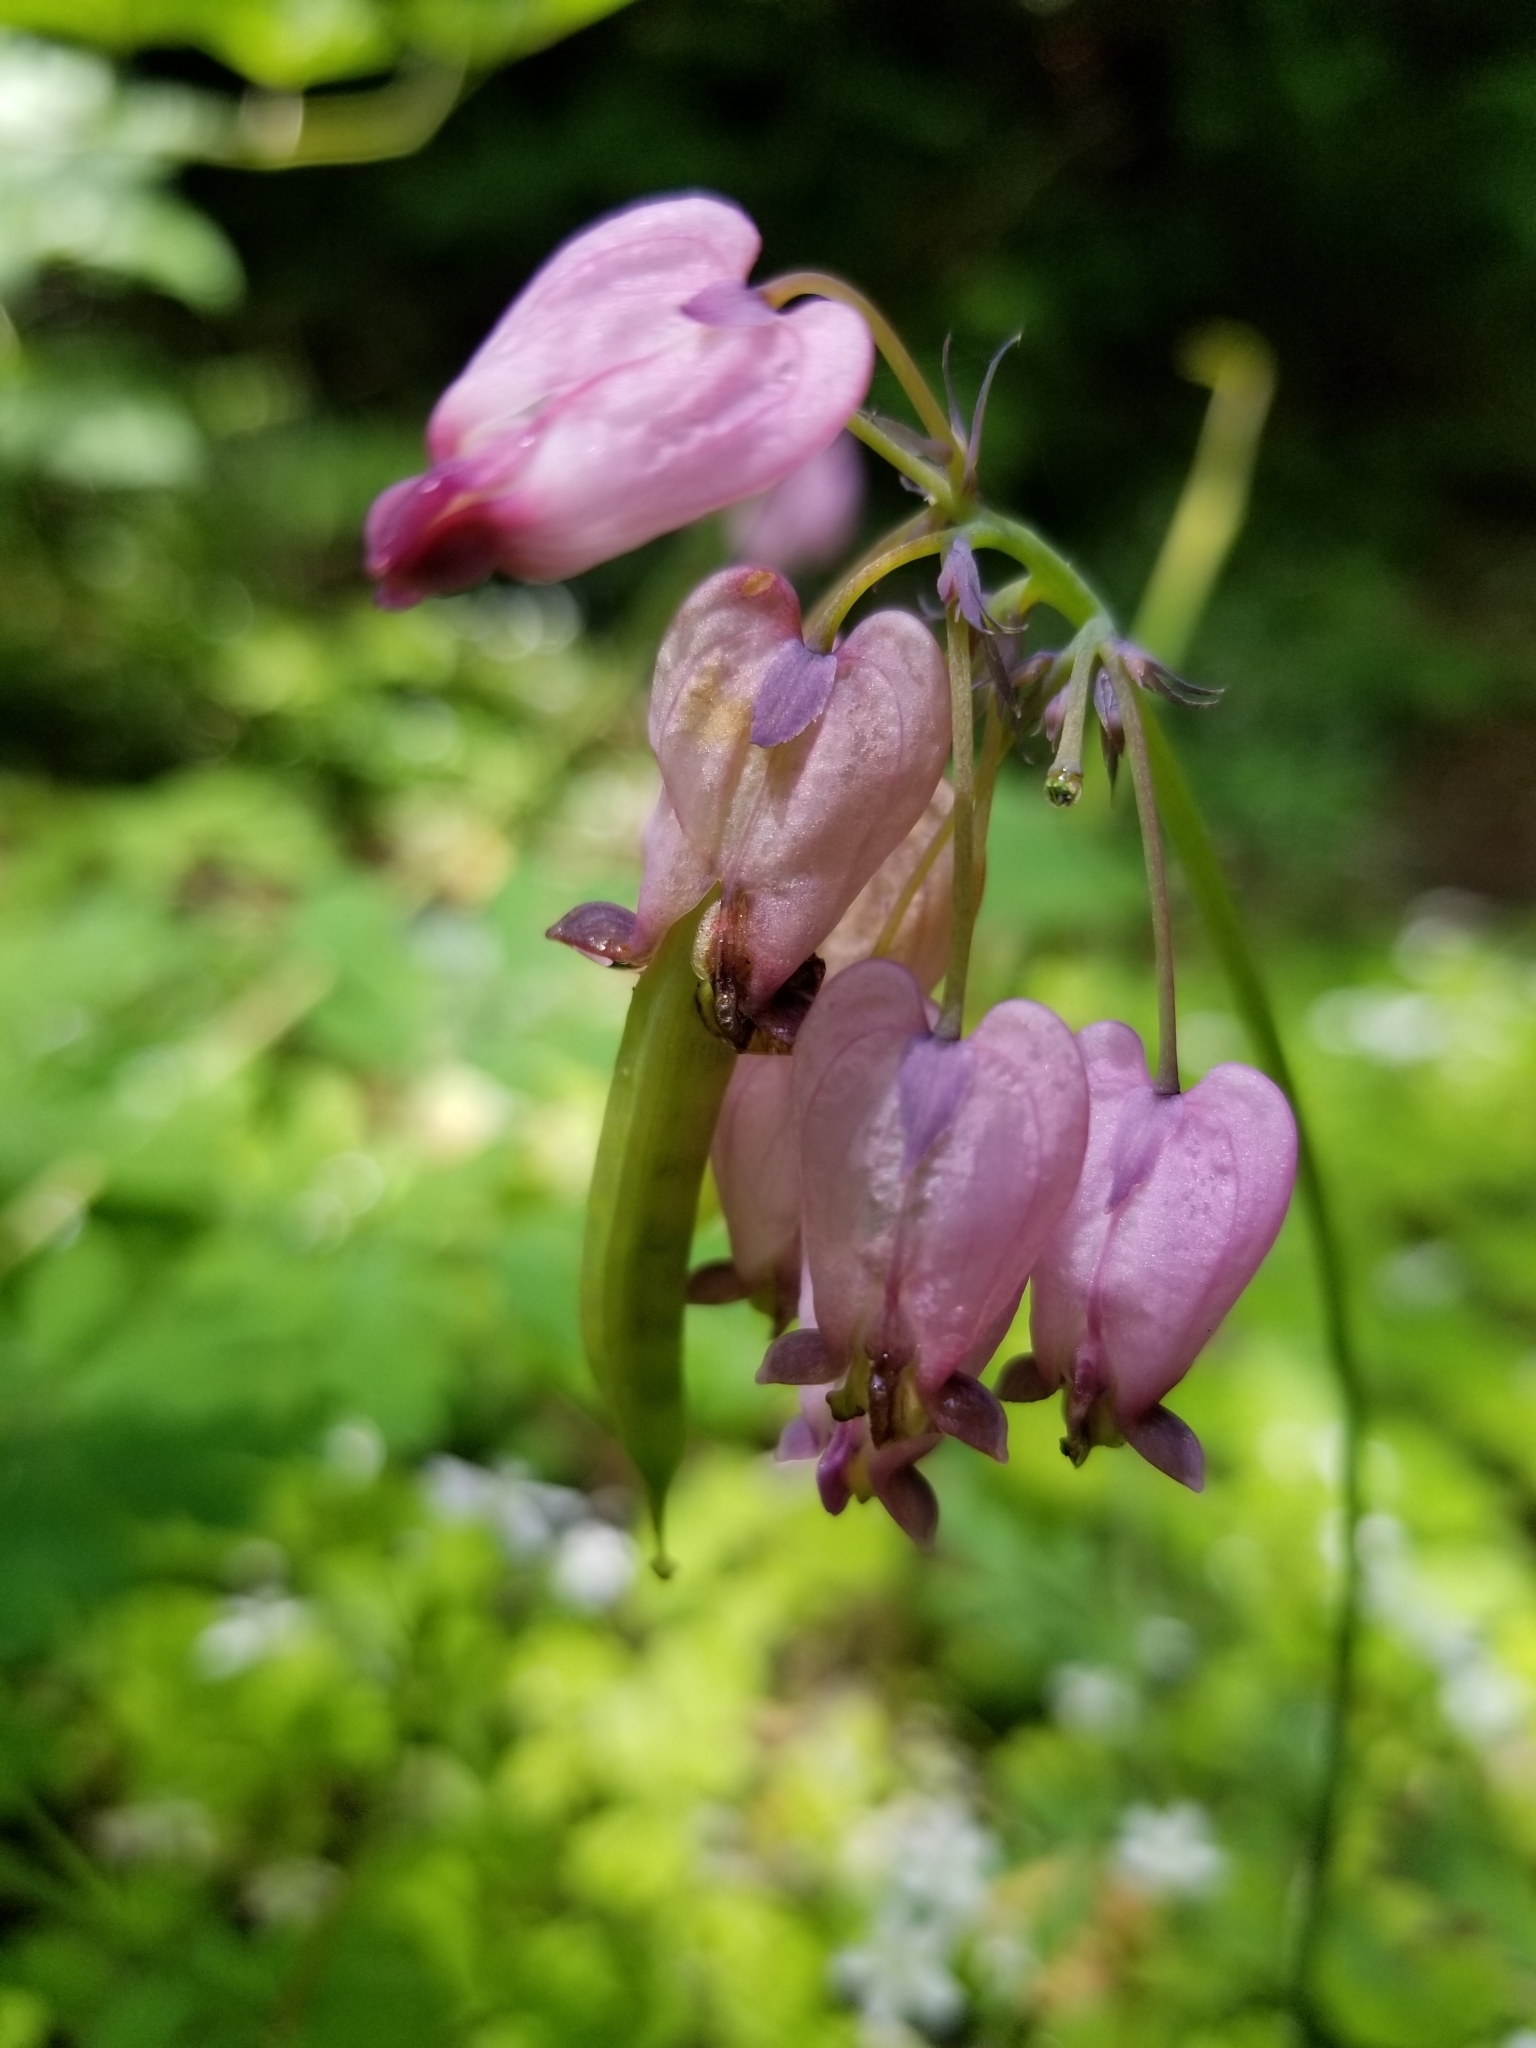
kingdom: Plantae
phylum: Tracheophyta
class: Magnoliopsida
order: Ranunculales
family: Papaveraceae
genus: Dicentra
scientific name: Dicentra formosa
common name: Bleeding-heart
